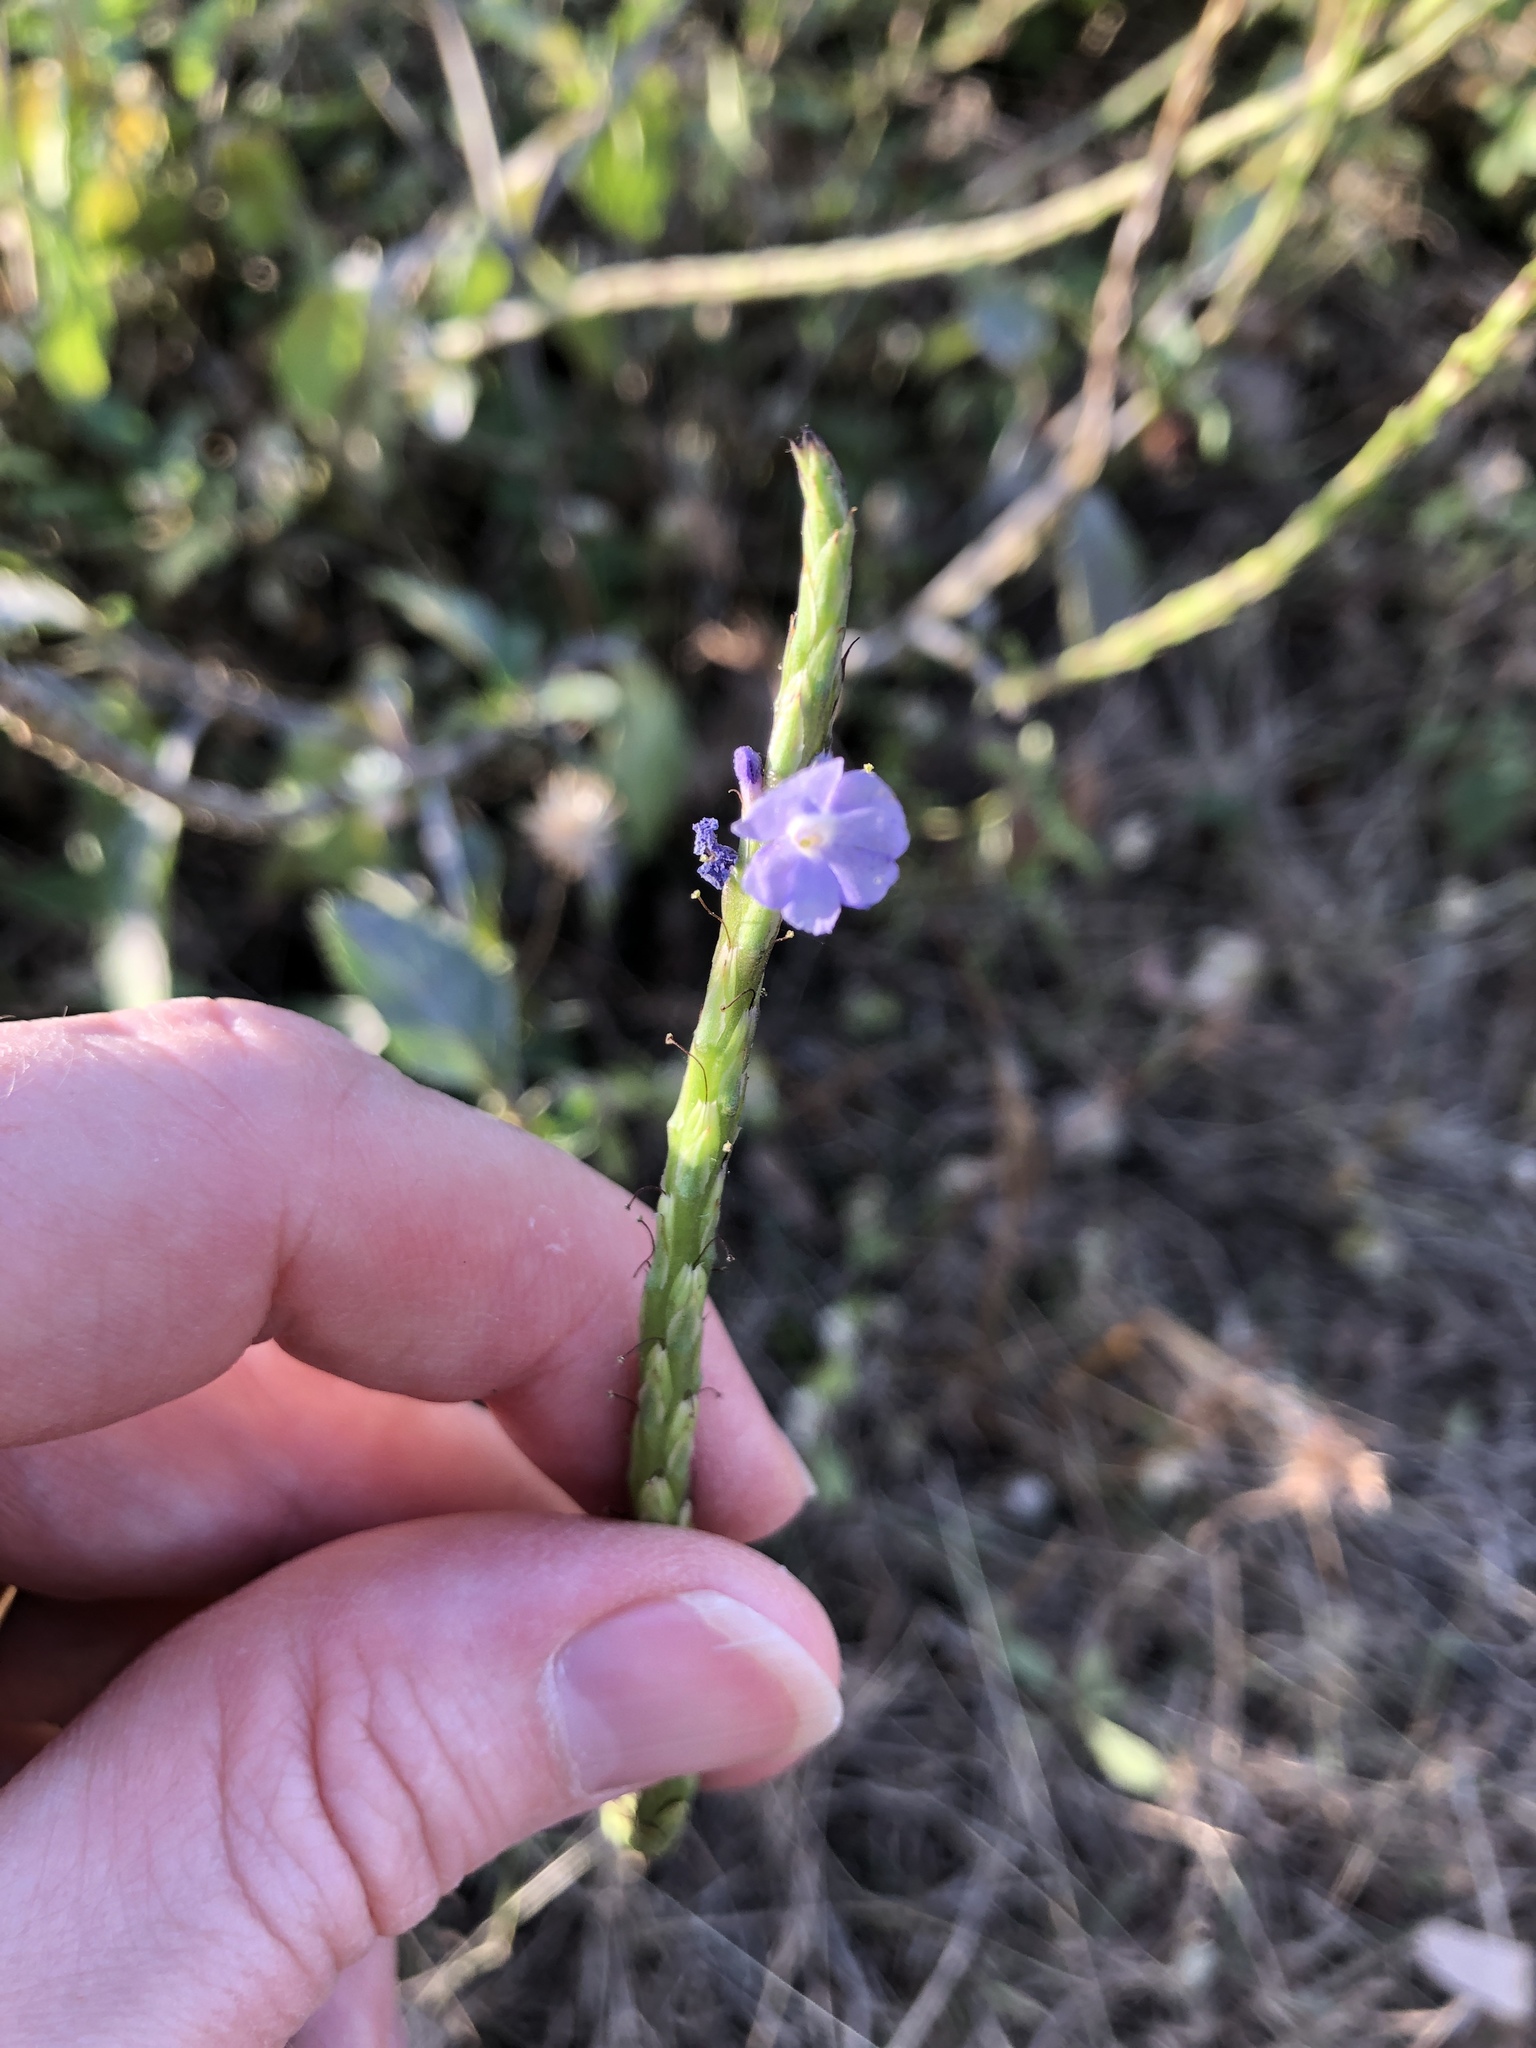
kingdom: Plantae
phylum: Tracheophyta
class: Magnoliopsida
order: Lamiales
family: Verbenaceae
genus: Stachytarpheta
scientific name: Stachytarpheta jamaicensis
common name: Light-blue snakeweed
